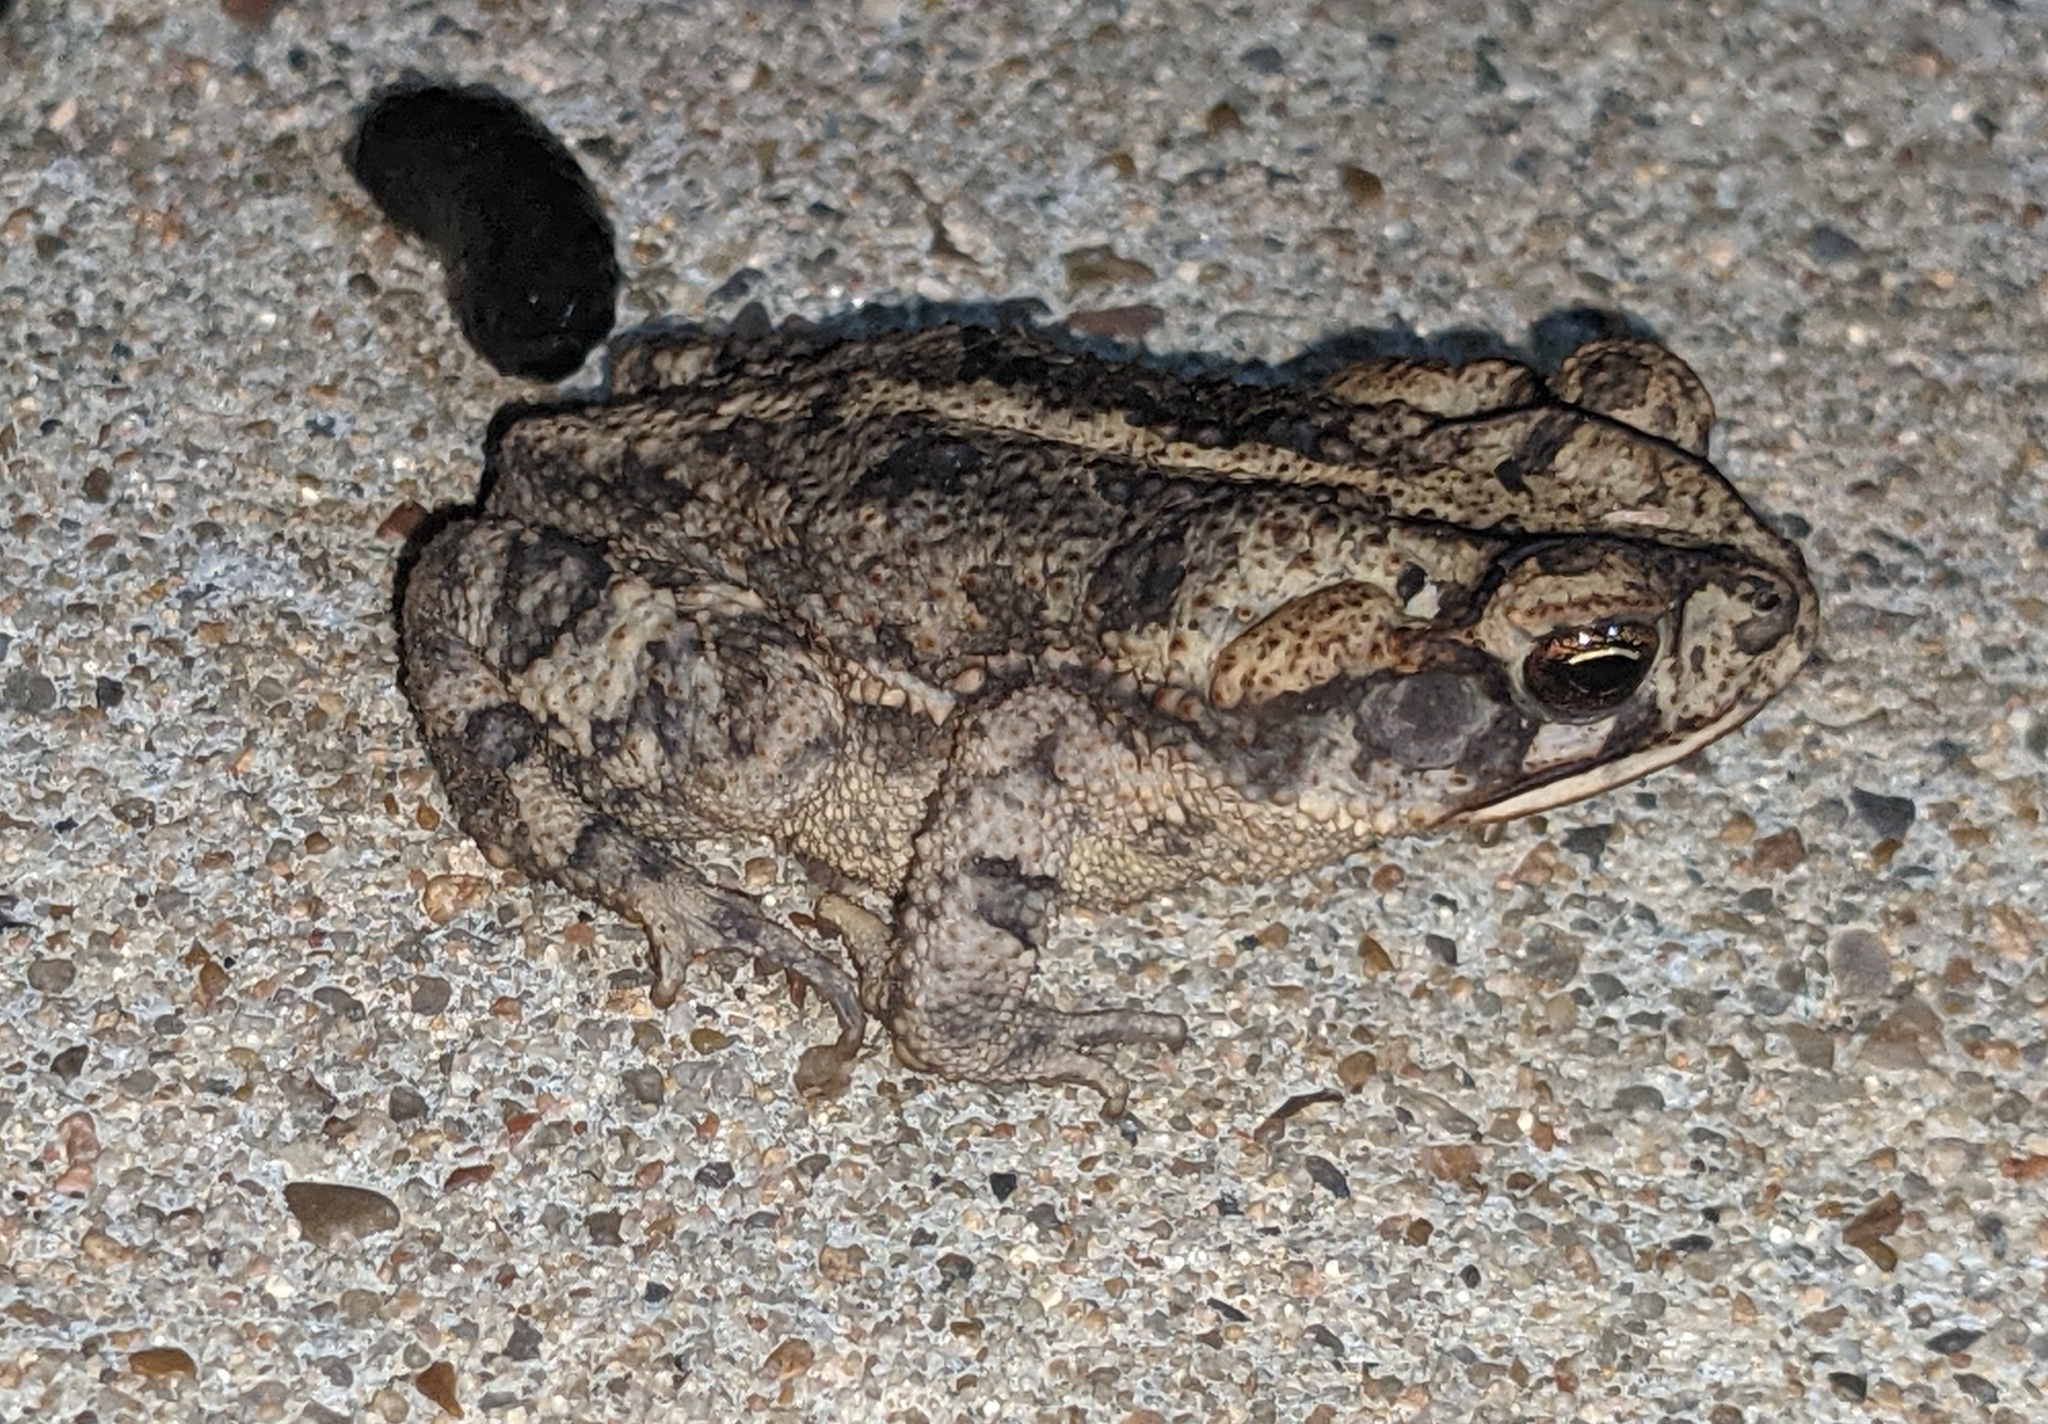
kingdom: Animalia
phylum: Chordata
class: Amphibia
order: Anura
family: Bufonidae
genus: Incilius
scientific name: Incilius nebulifer
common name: Gulf coast toad
